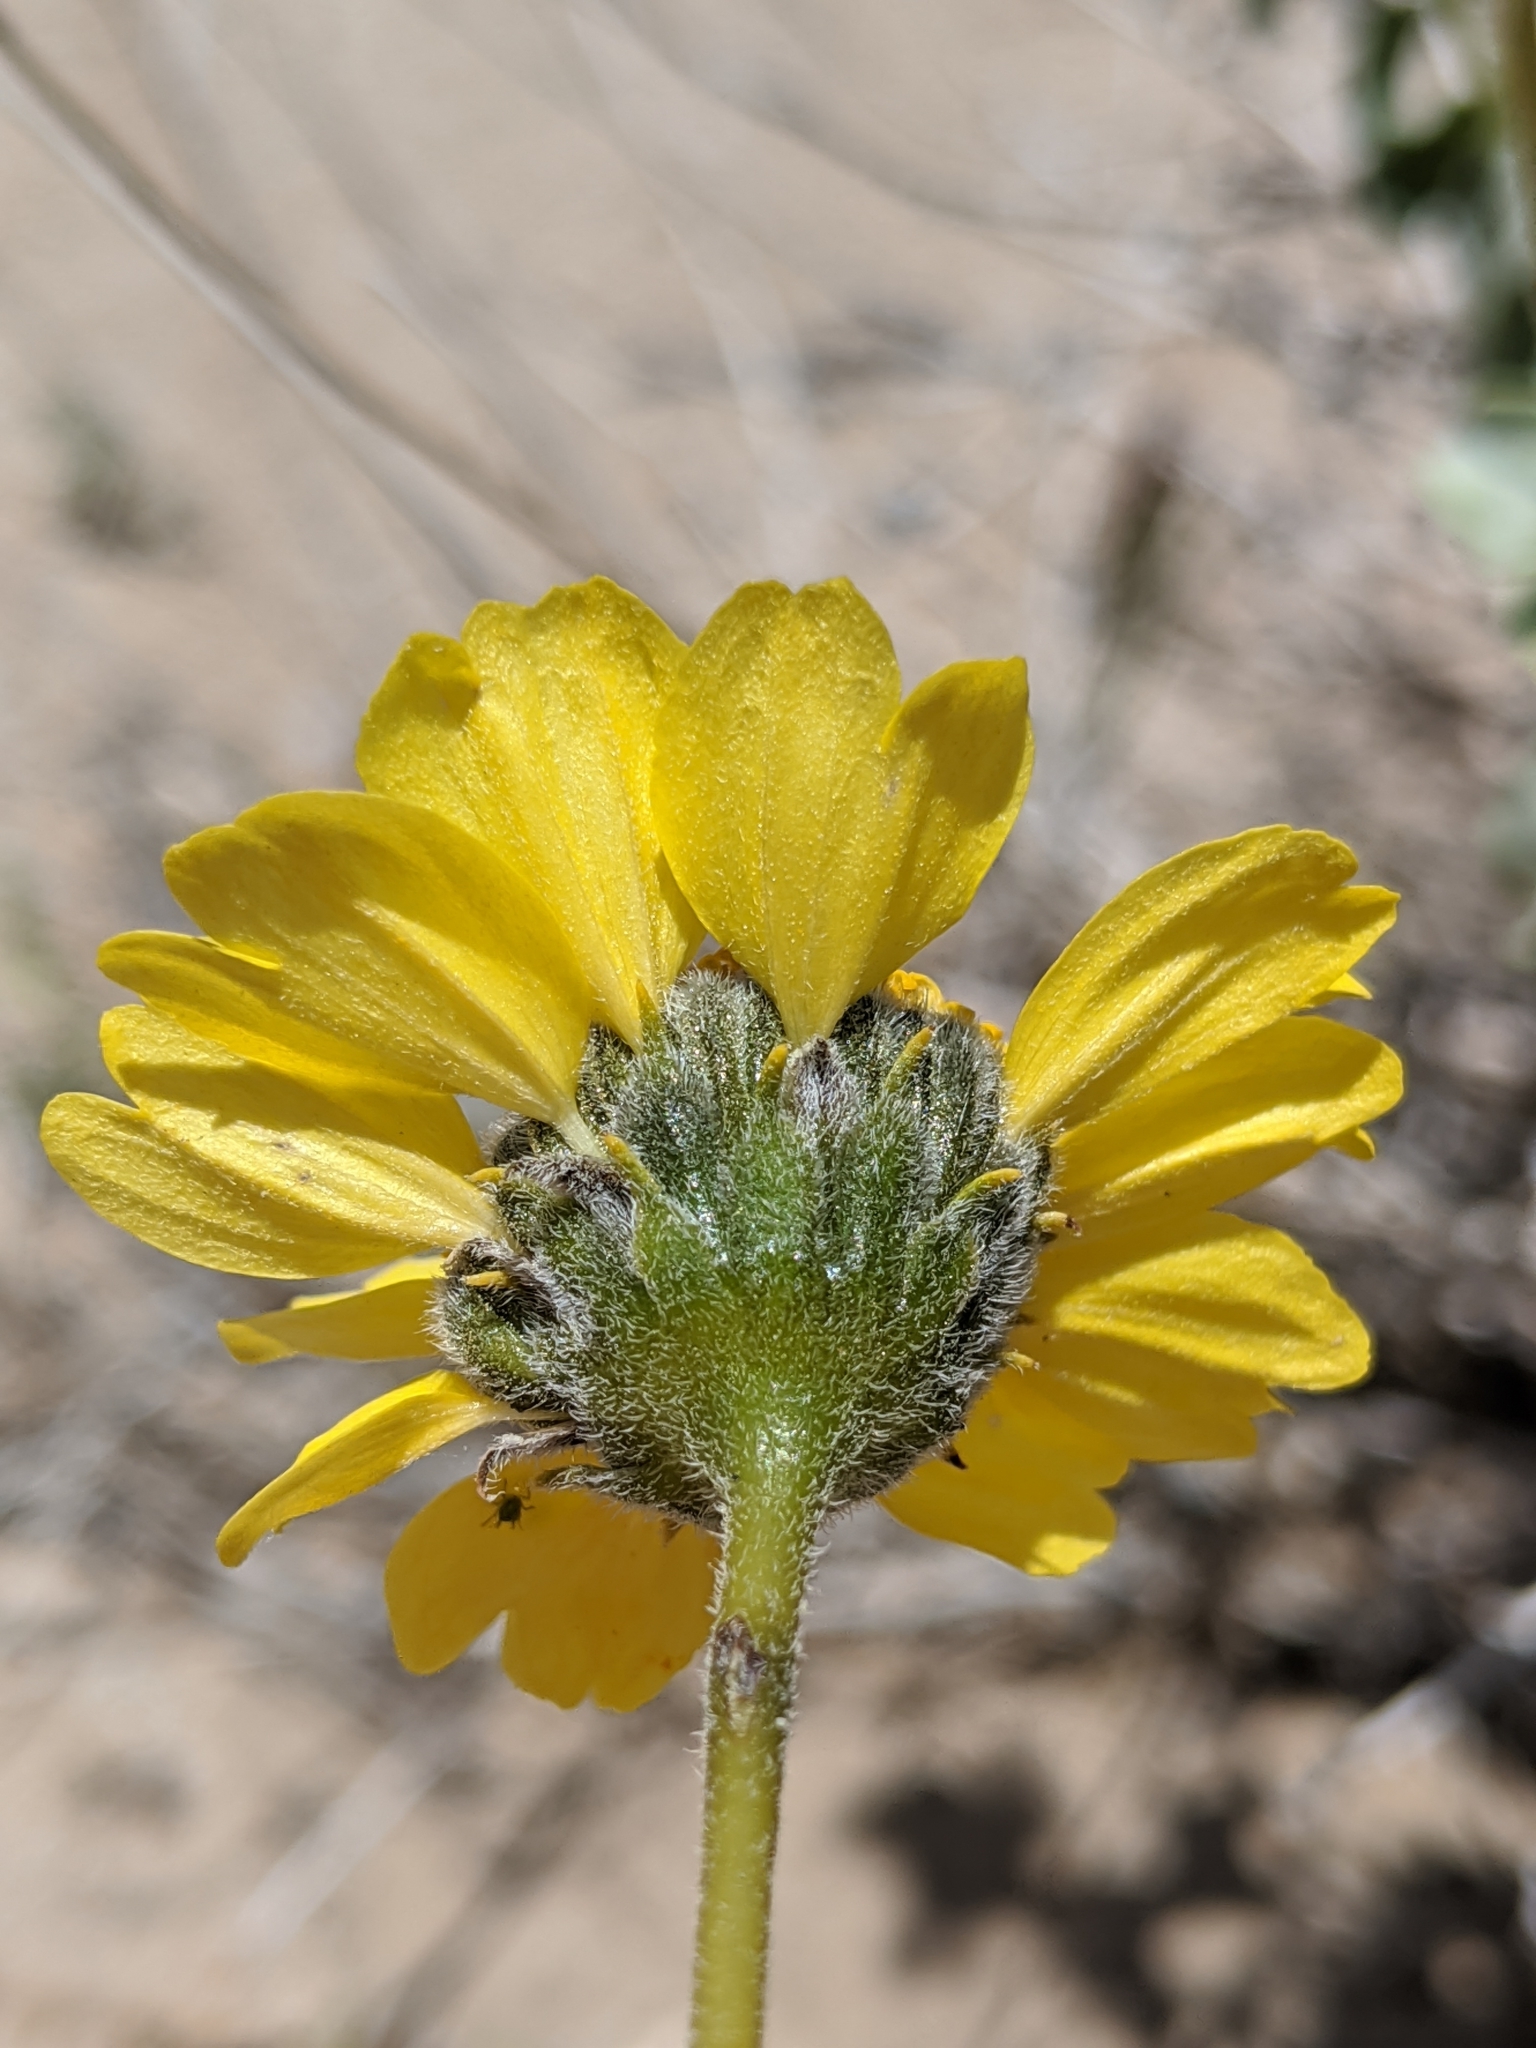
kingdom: Plantae
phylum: Tracheophyta
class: Magnoliopsida
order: Asterales
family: Asteraceae
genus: Encelia
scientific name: Encelia actoni
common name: Acton encelia
